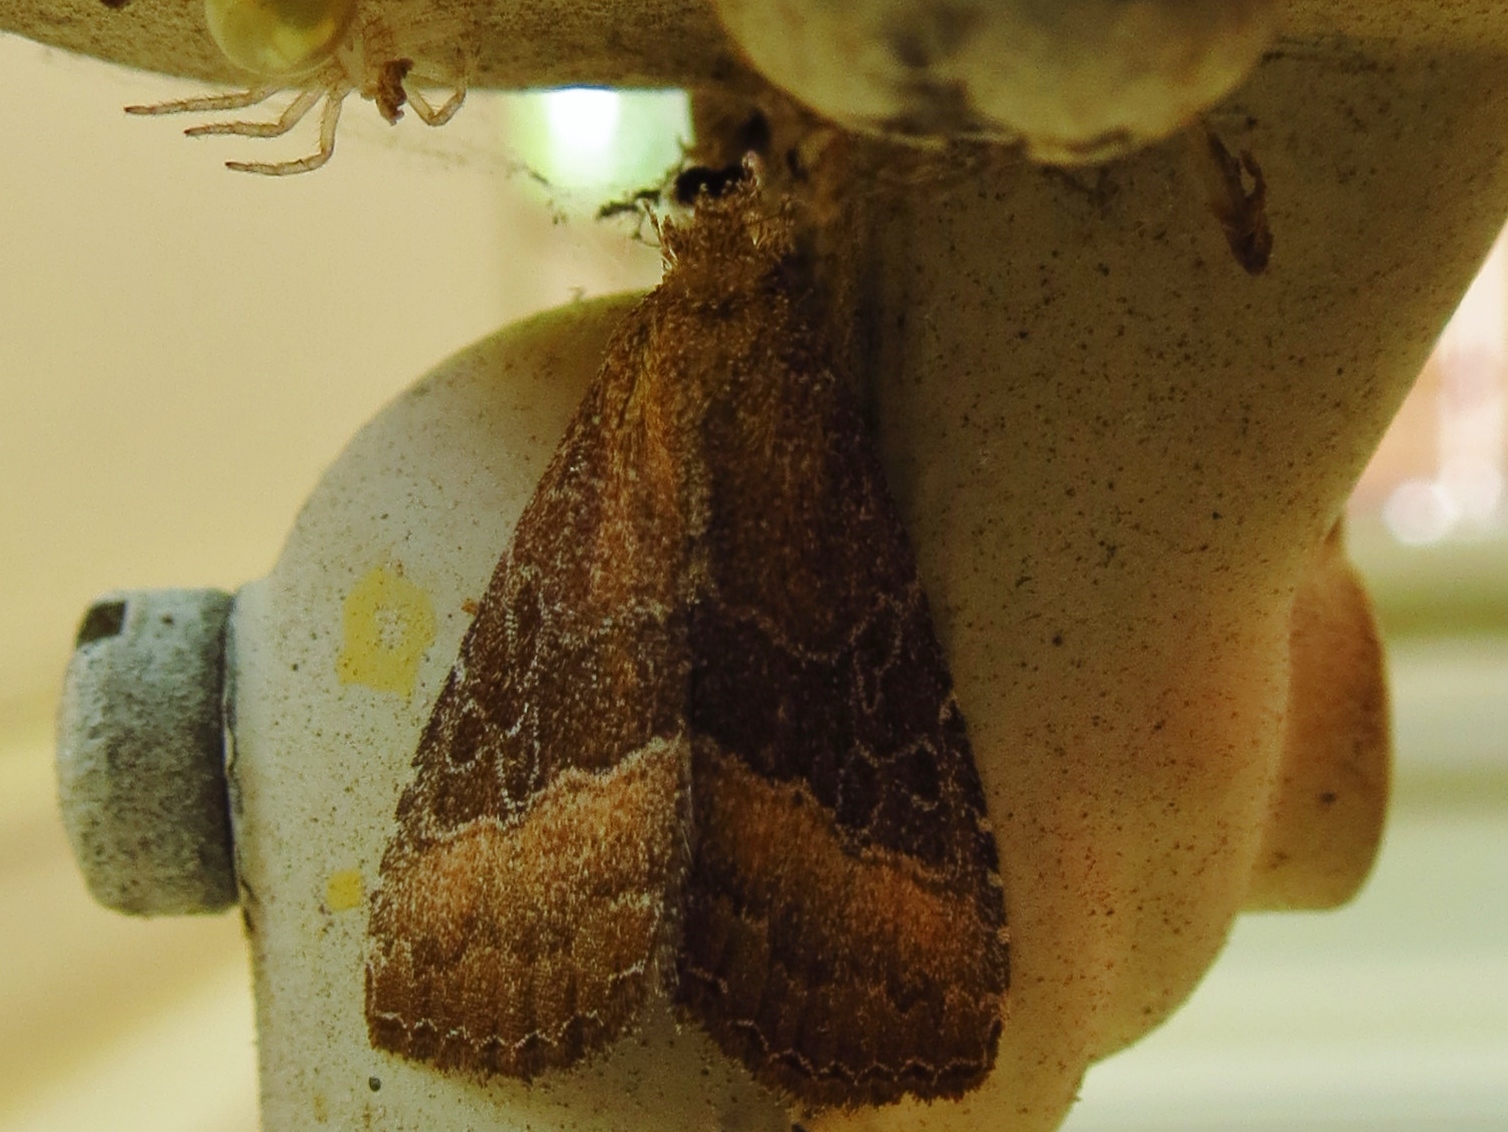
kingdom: Animalia
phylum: Arthropoda
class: Insecta
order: Lepidoptera
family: Noctuidae
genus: Ogdoconta
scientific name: Ogdoconta cinereola
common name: Common pinkband
